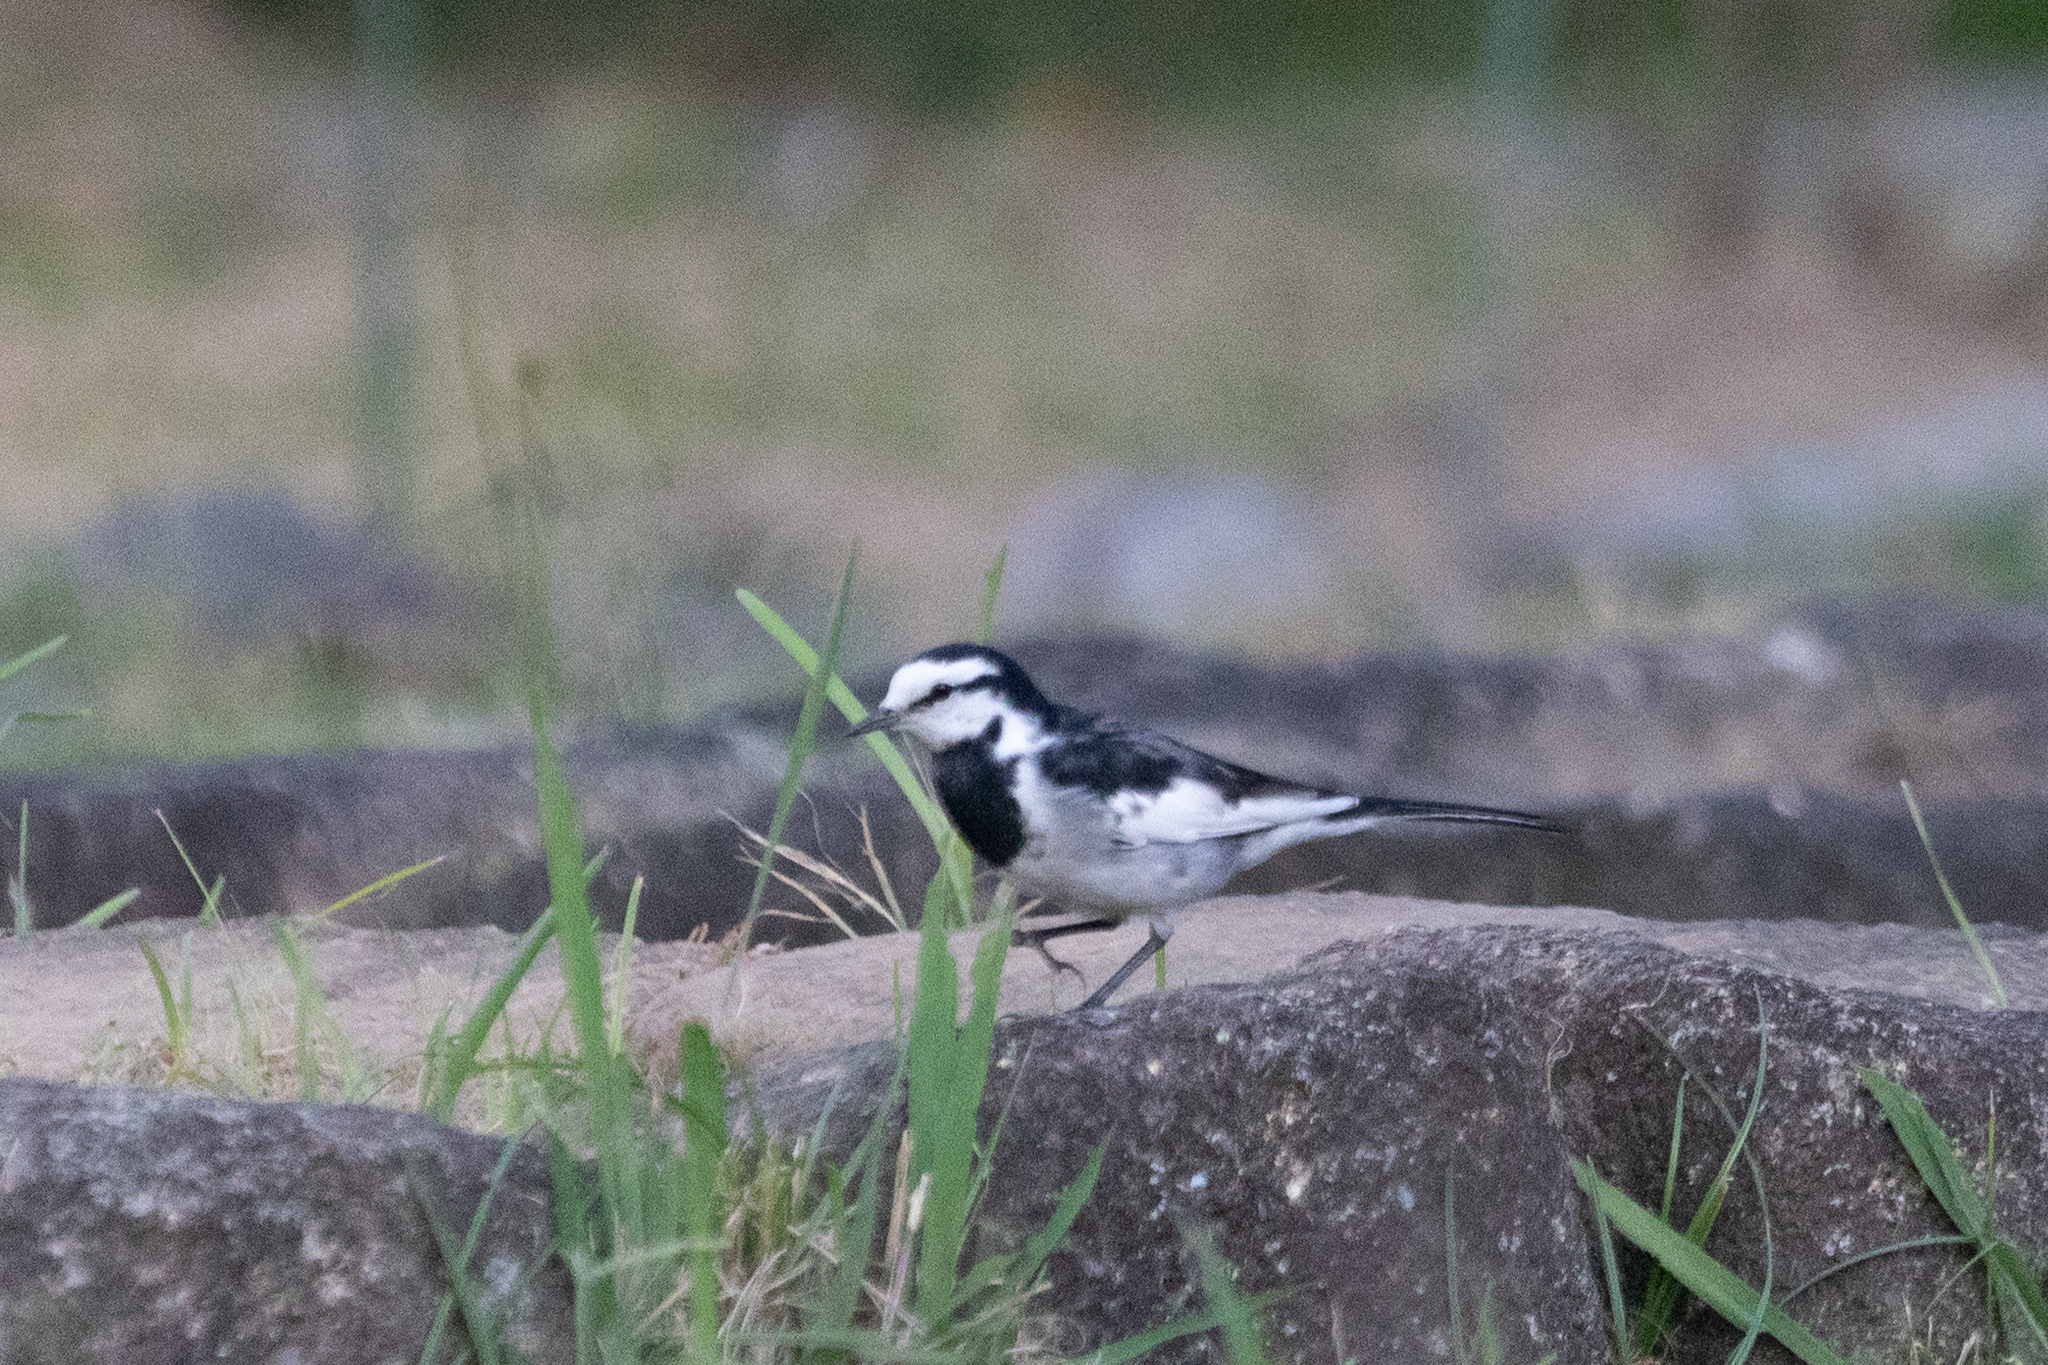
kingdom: Animalia
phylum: Chordata
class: Aves
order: Passeriformes
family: Motacillidae
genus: Motacilla
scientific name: Motacilla alba
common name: White wagtail
